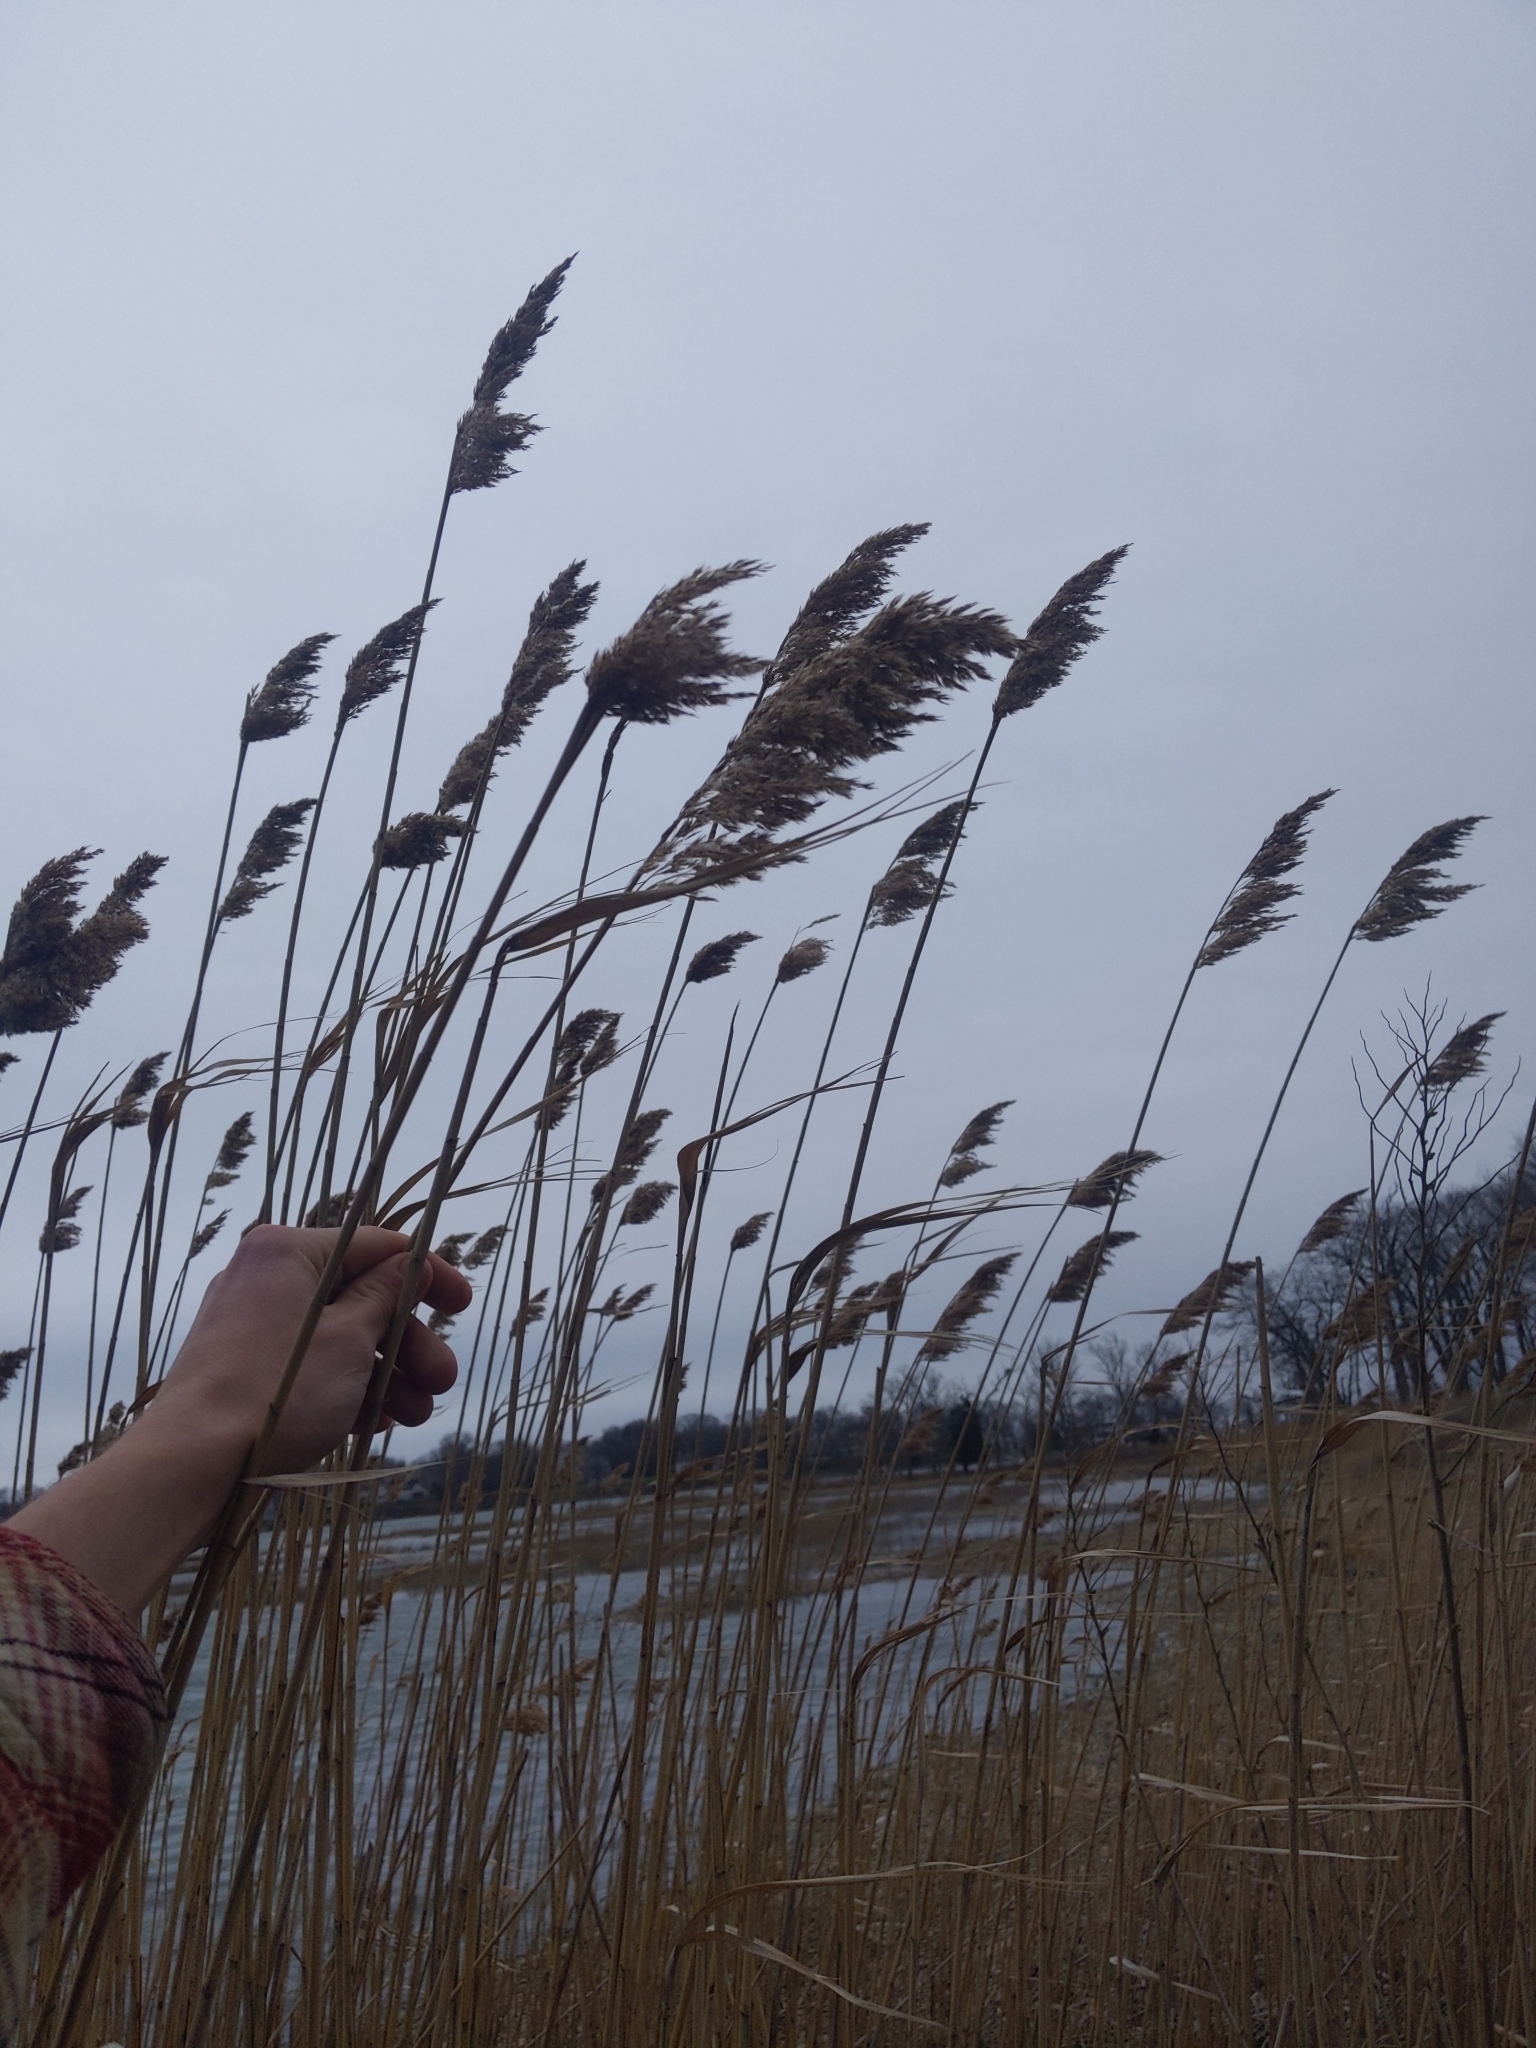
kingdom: Plantae
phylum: Tracheophyta
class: Liliopsida
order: Poales
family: Poaceae
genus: Phragmites
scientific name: Phragmites australis
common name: Common reed
